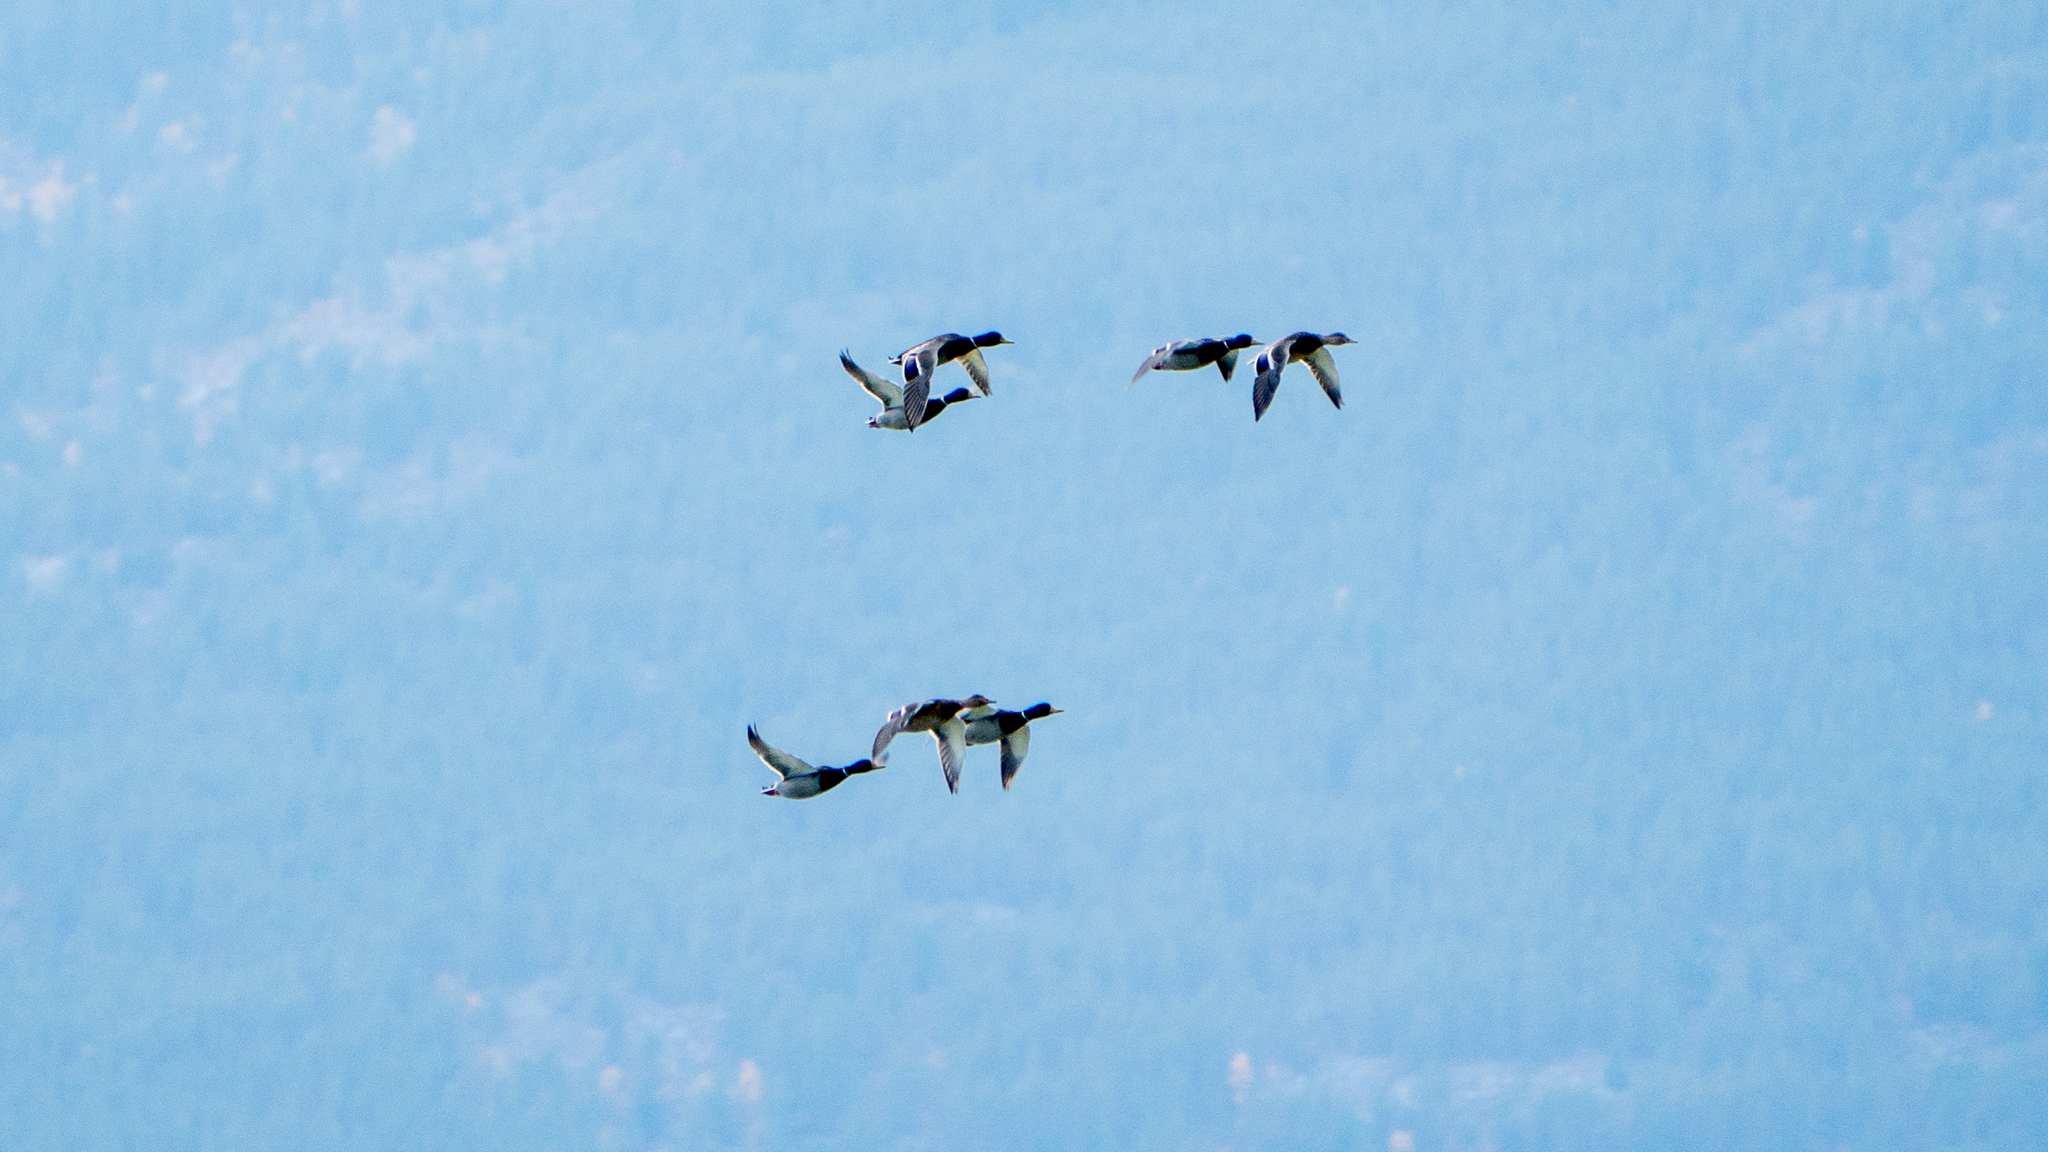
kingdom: Animalia
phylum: Chordata
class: Aves
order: Anseriformes
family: Anatidae
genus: Anas
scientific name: Anas platyrhynchos
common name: Mallard
